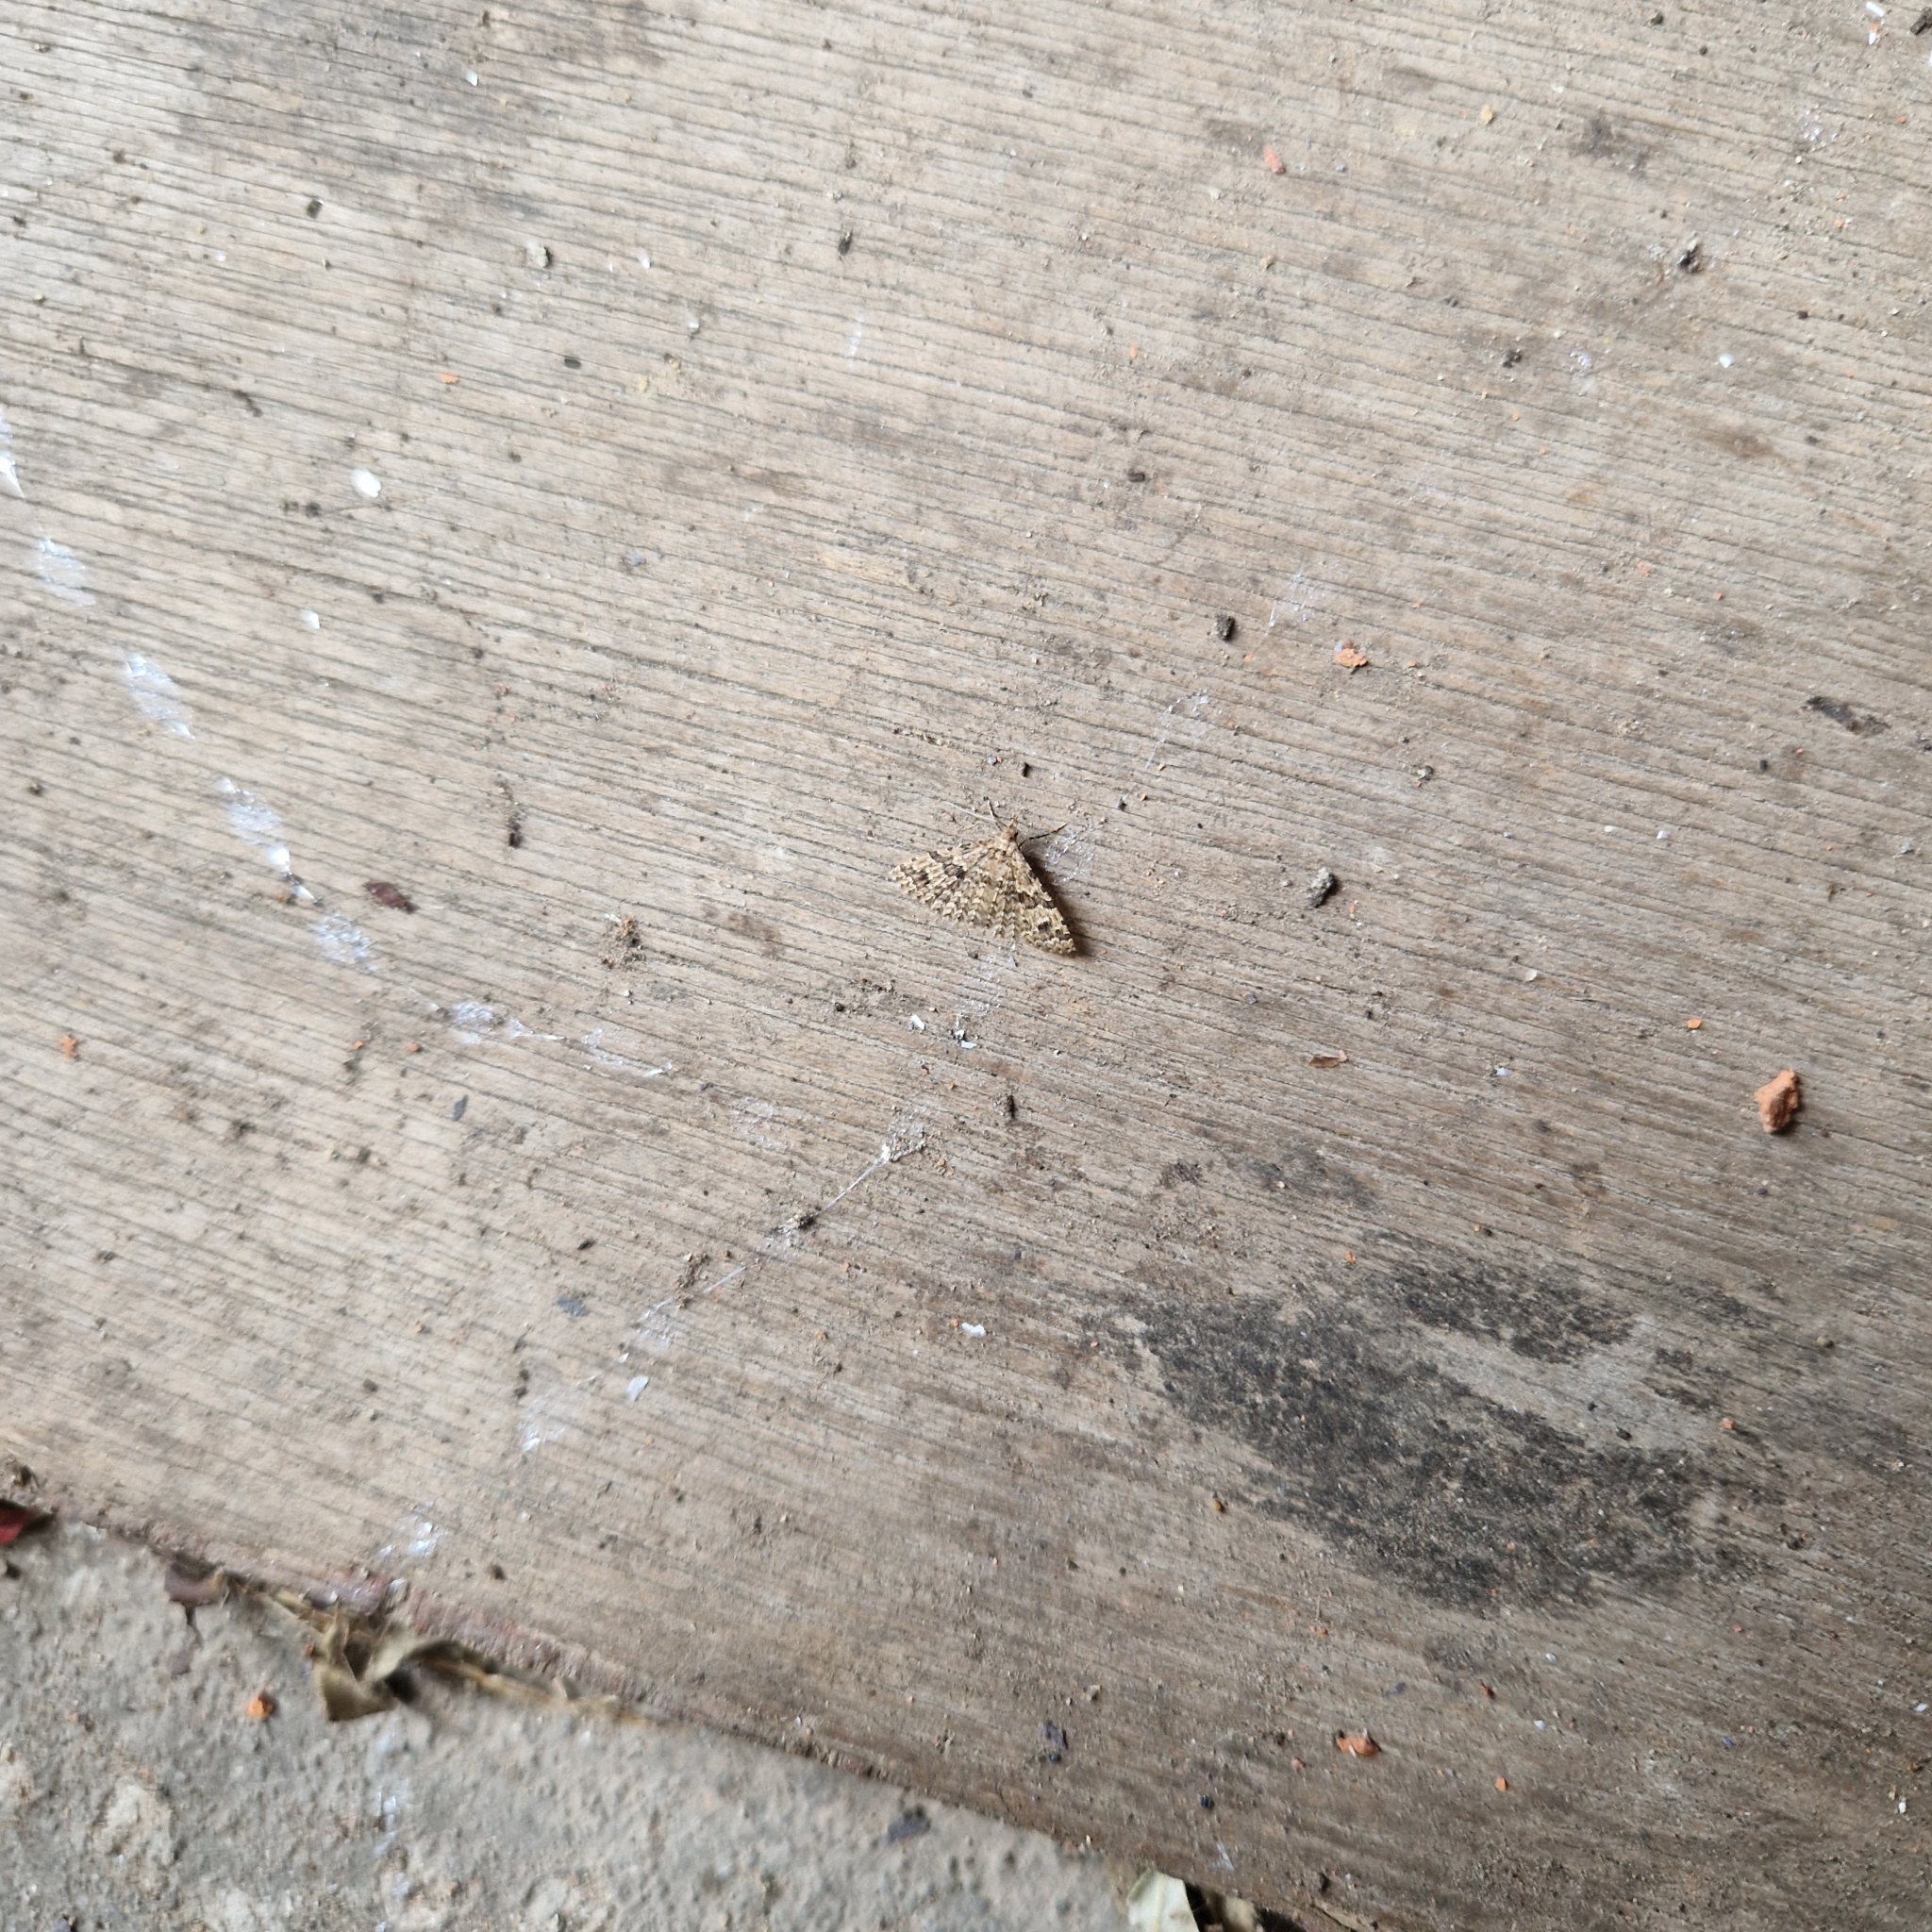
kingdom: Animalia
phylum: Arthropoda
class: Insecta
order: Lepidoptera
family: Alucitidae
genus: Alucita
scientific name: Alucita hexadactyla
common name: Twenty-plume moth
